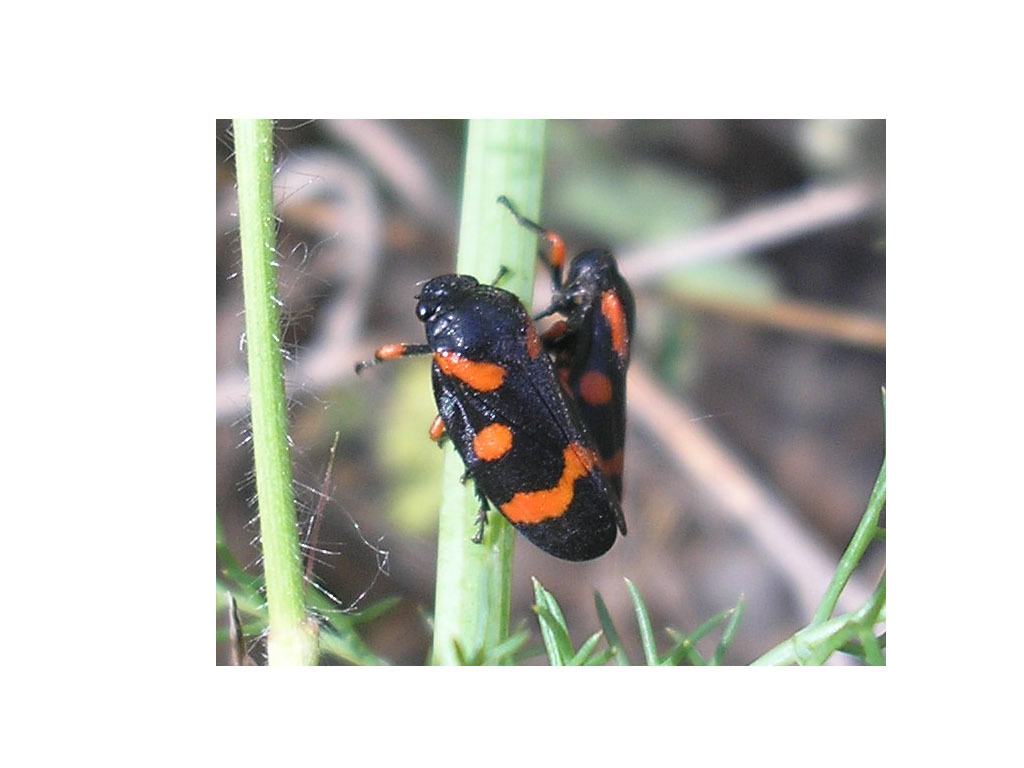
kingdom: Animalia
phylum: Arthropoda
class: Insecta
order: Hemiptera
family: Cercopidae
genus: Cercopis
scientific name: Cercopis intermedia
